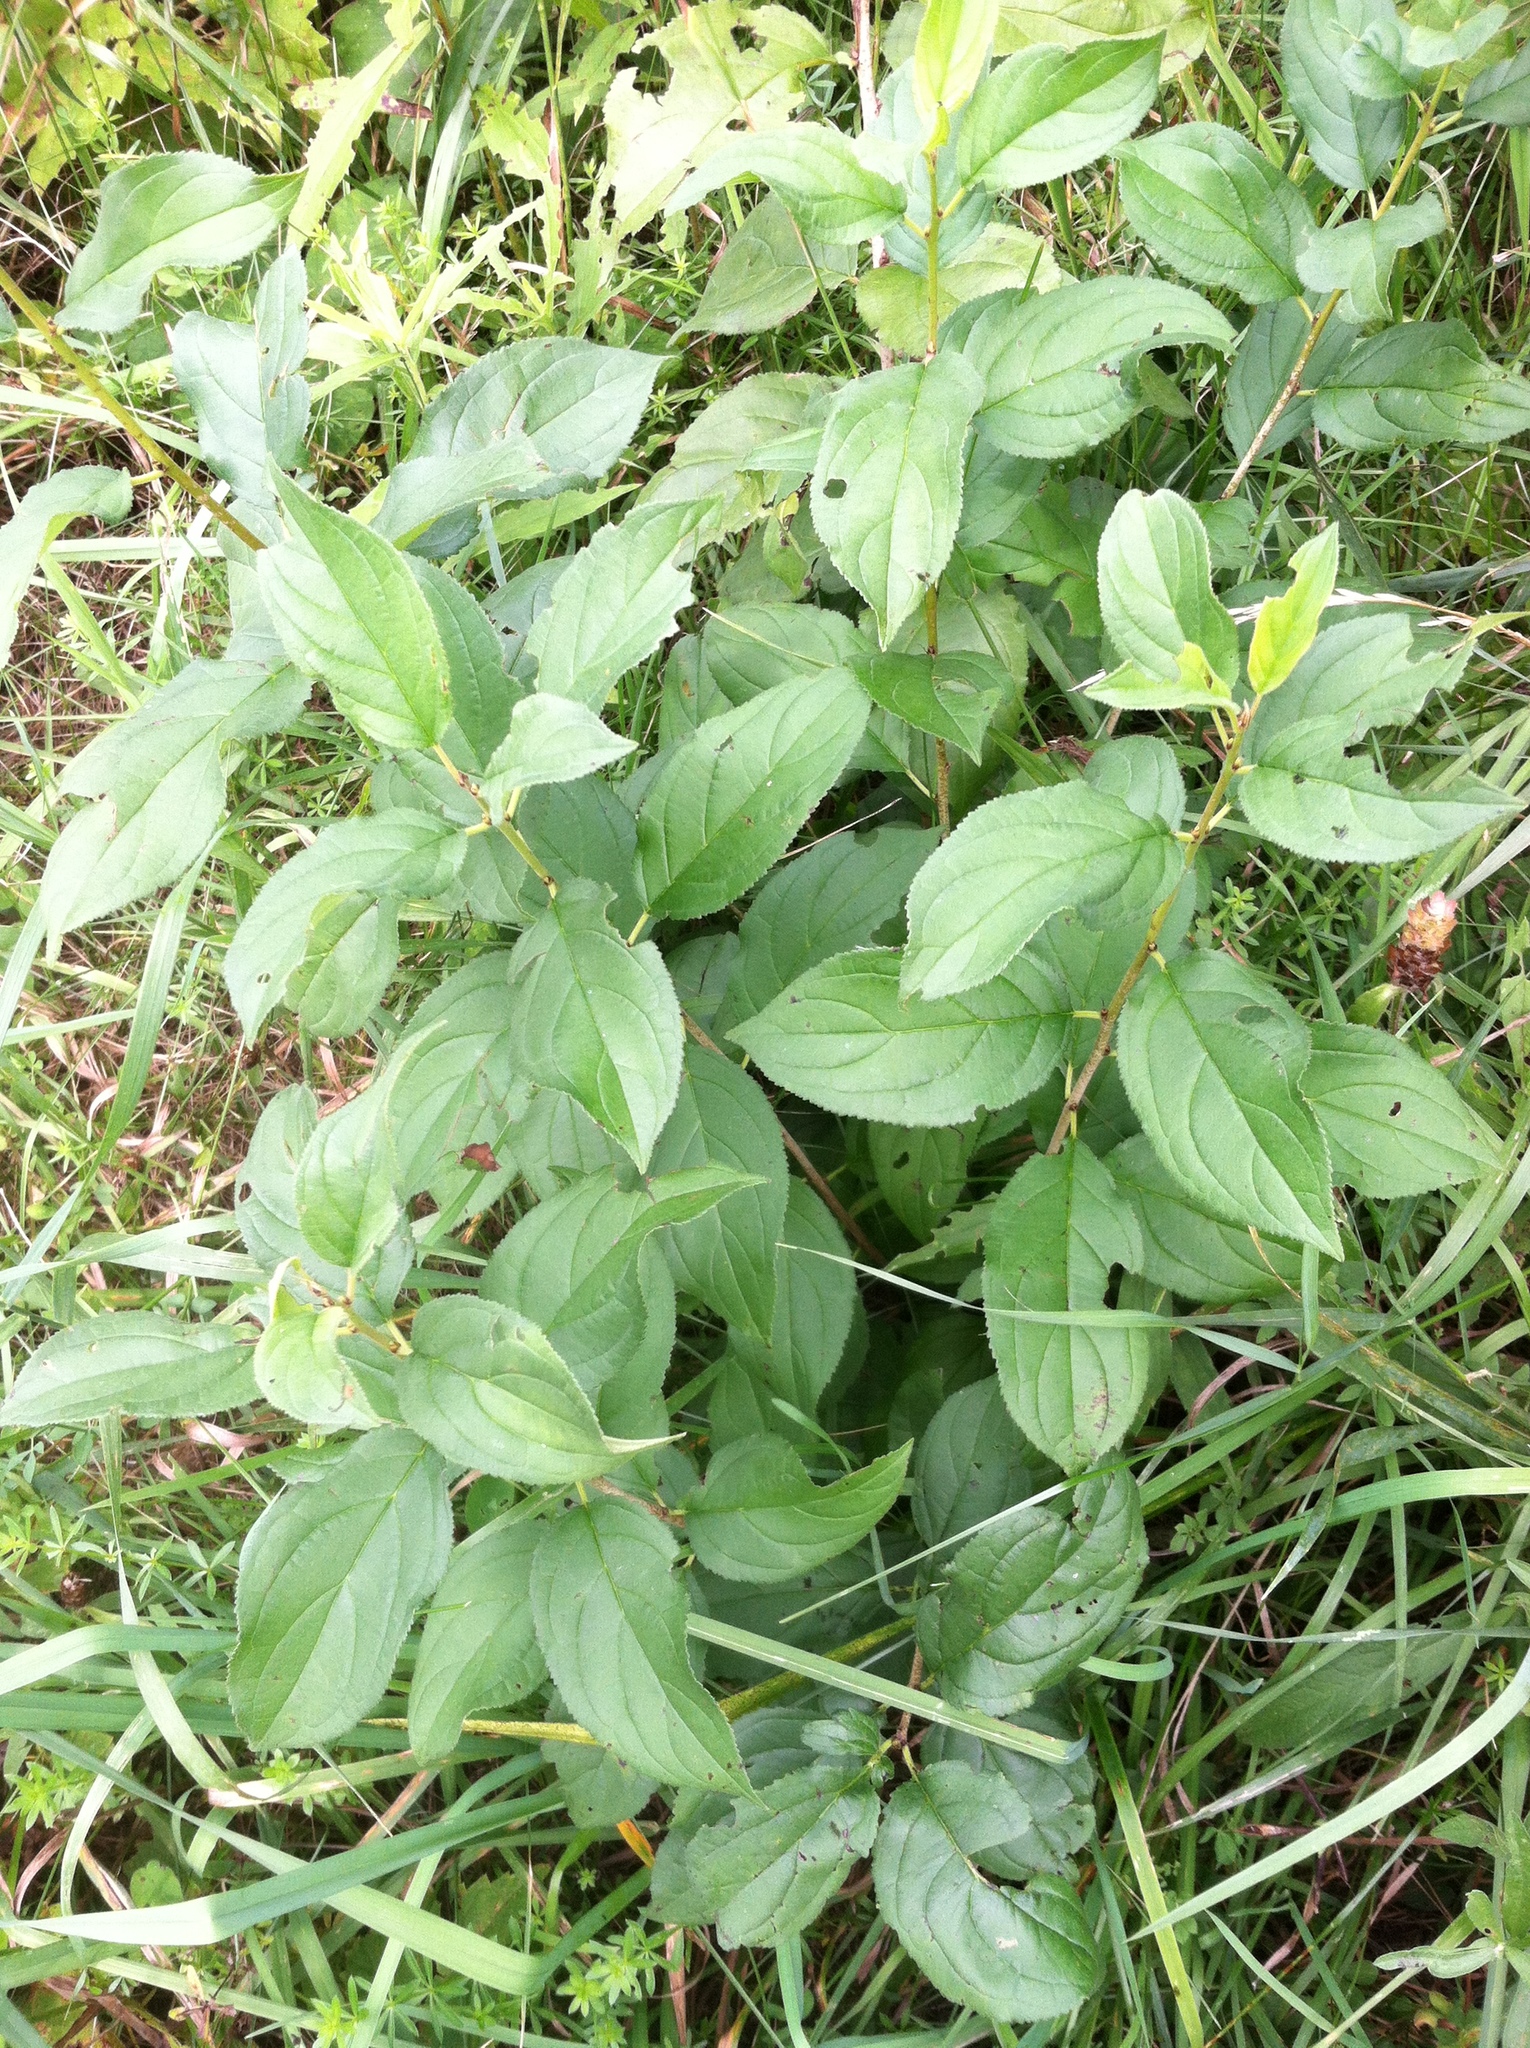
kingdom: Plantae
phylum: Tracheophyta
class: Magnoliopsida
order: Rosales
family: Rhamnaceae
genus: Rhamnus
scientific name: Rhamnus cathartica
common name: Common buckthorn
